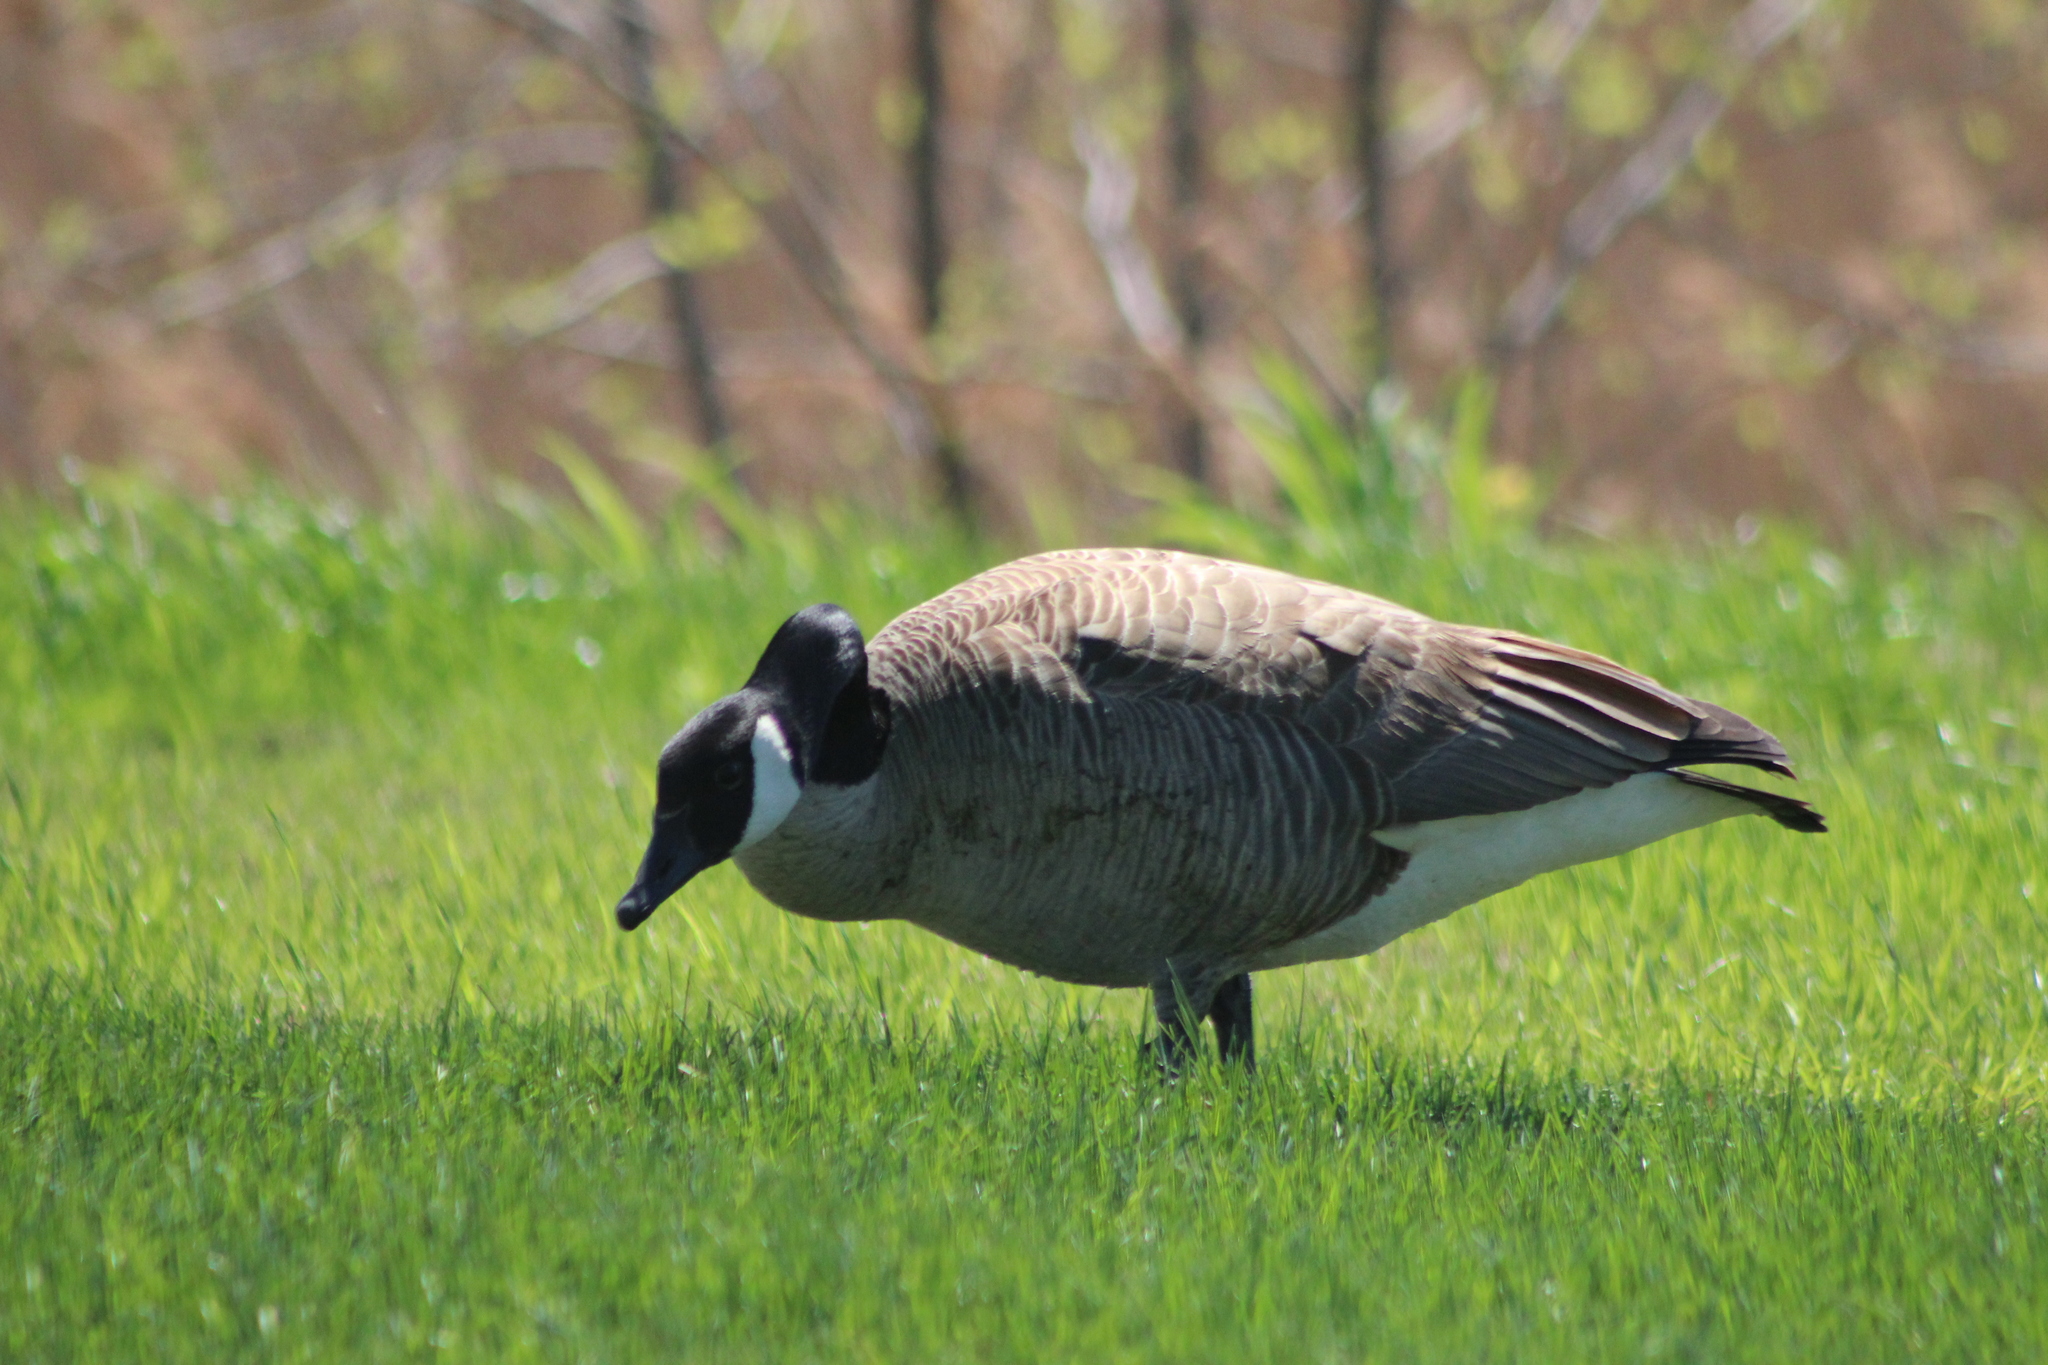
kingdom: Animalia
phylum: Chordata
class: Aves
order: Anseriformes
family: Anatidae
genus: Branta
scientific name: Branta canadensis
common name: Canada goose
